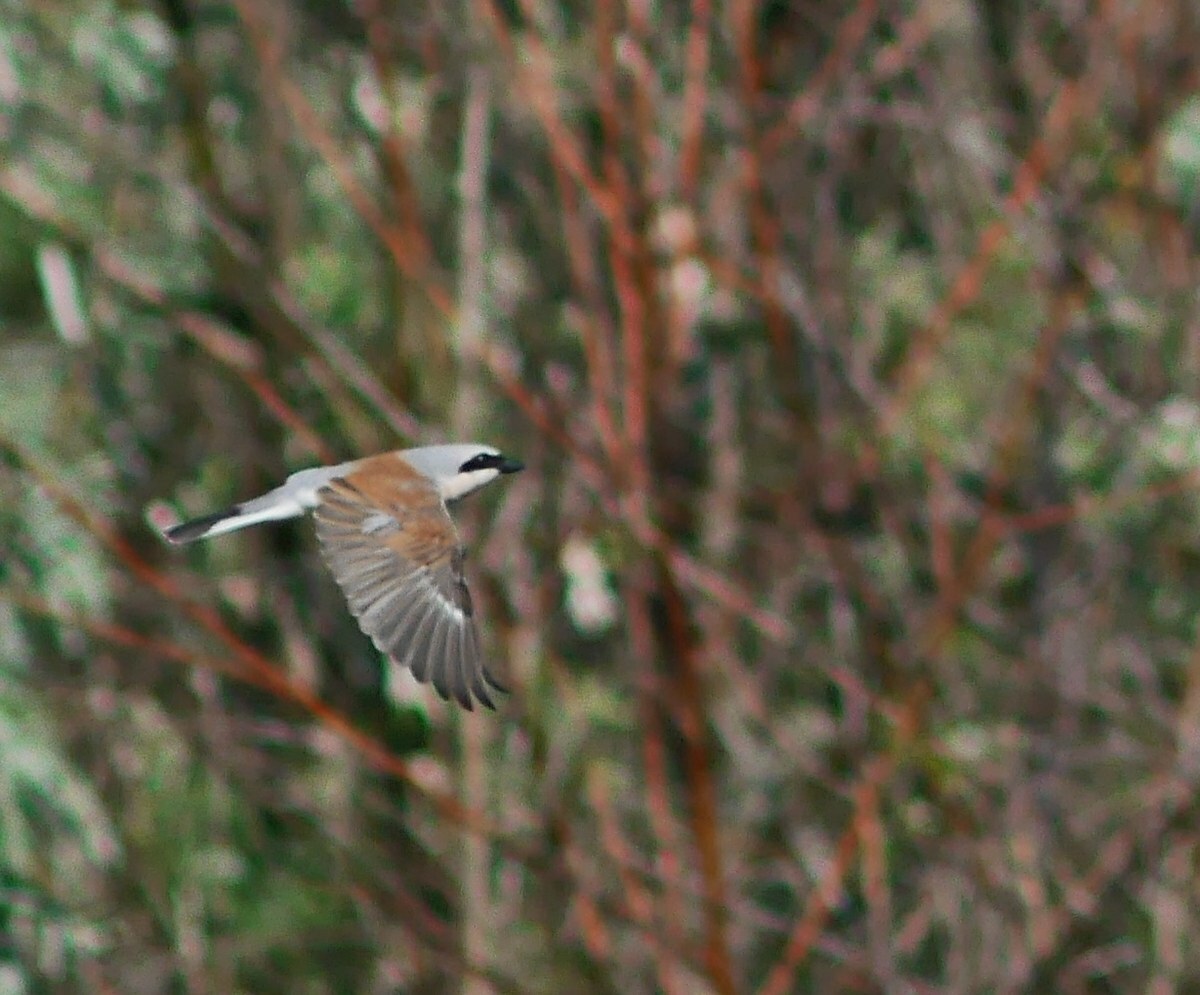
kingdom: Animalia
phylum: Chordata
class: Aves
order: Passeriformes
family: Laniidae
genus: Lanius
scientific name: Lanius collurio
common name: Red-backed shrike
